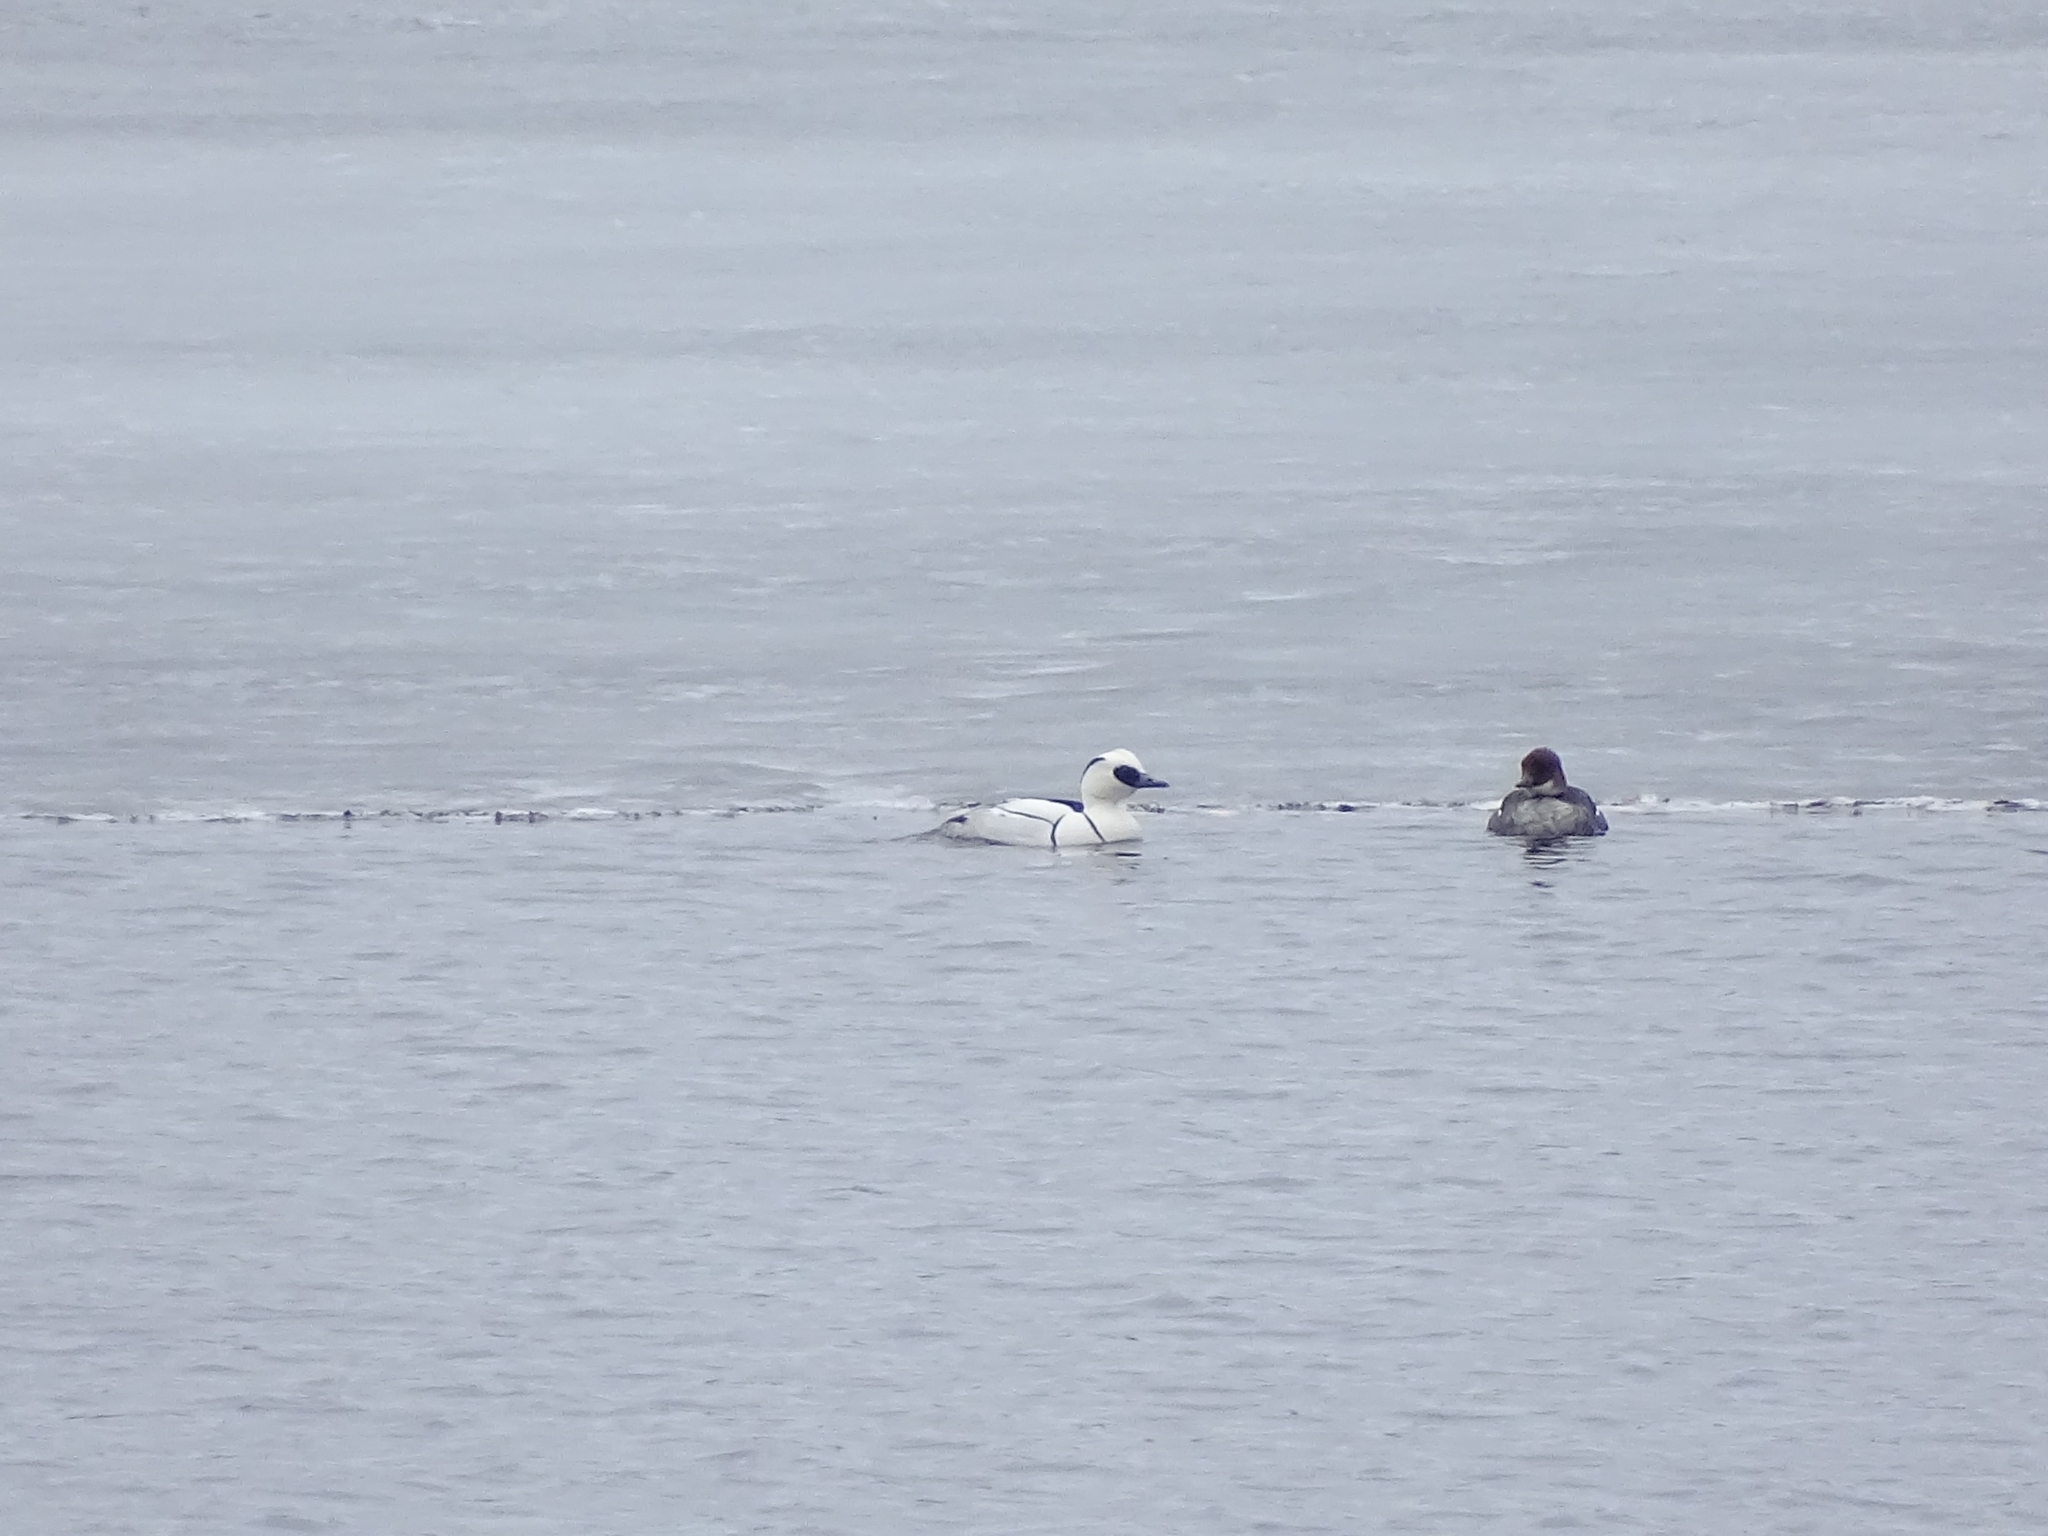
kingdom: Animalia
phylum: Chordata
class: Aves
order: Anseriformes
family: Anatidae
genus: Mergellus
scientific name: Mergellus albellus
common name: Smew
